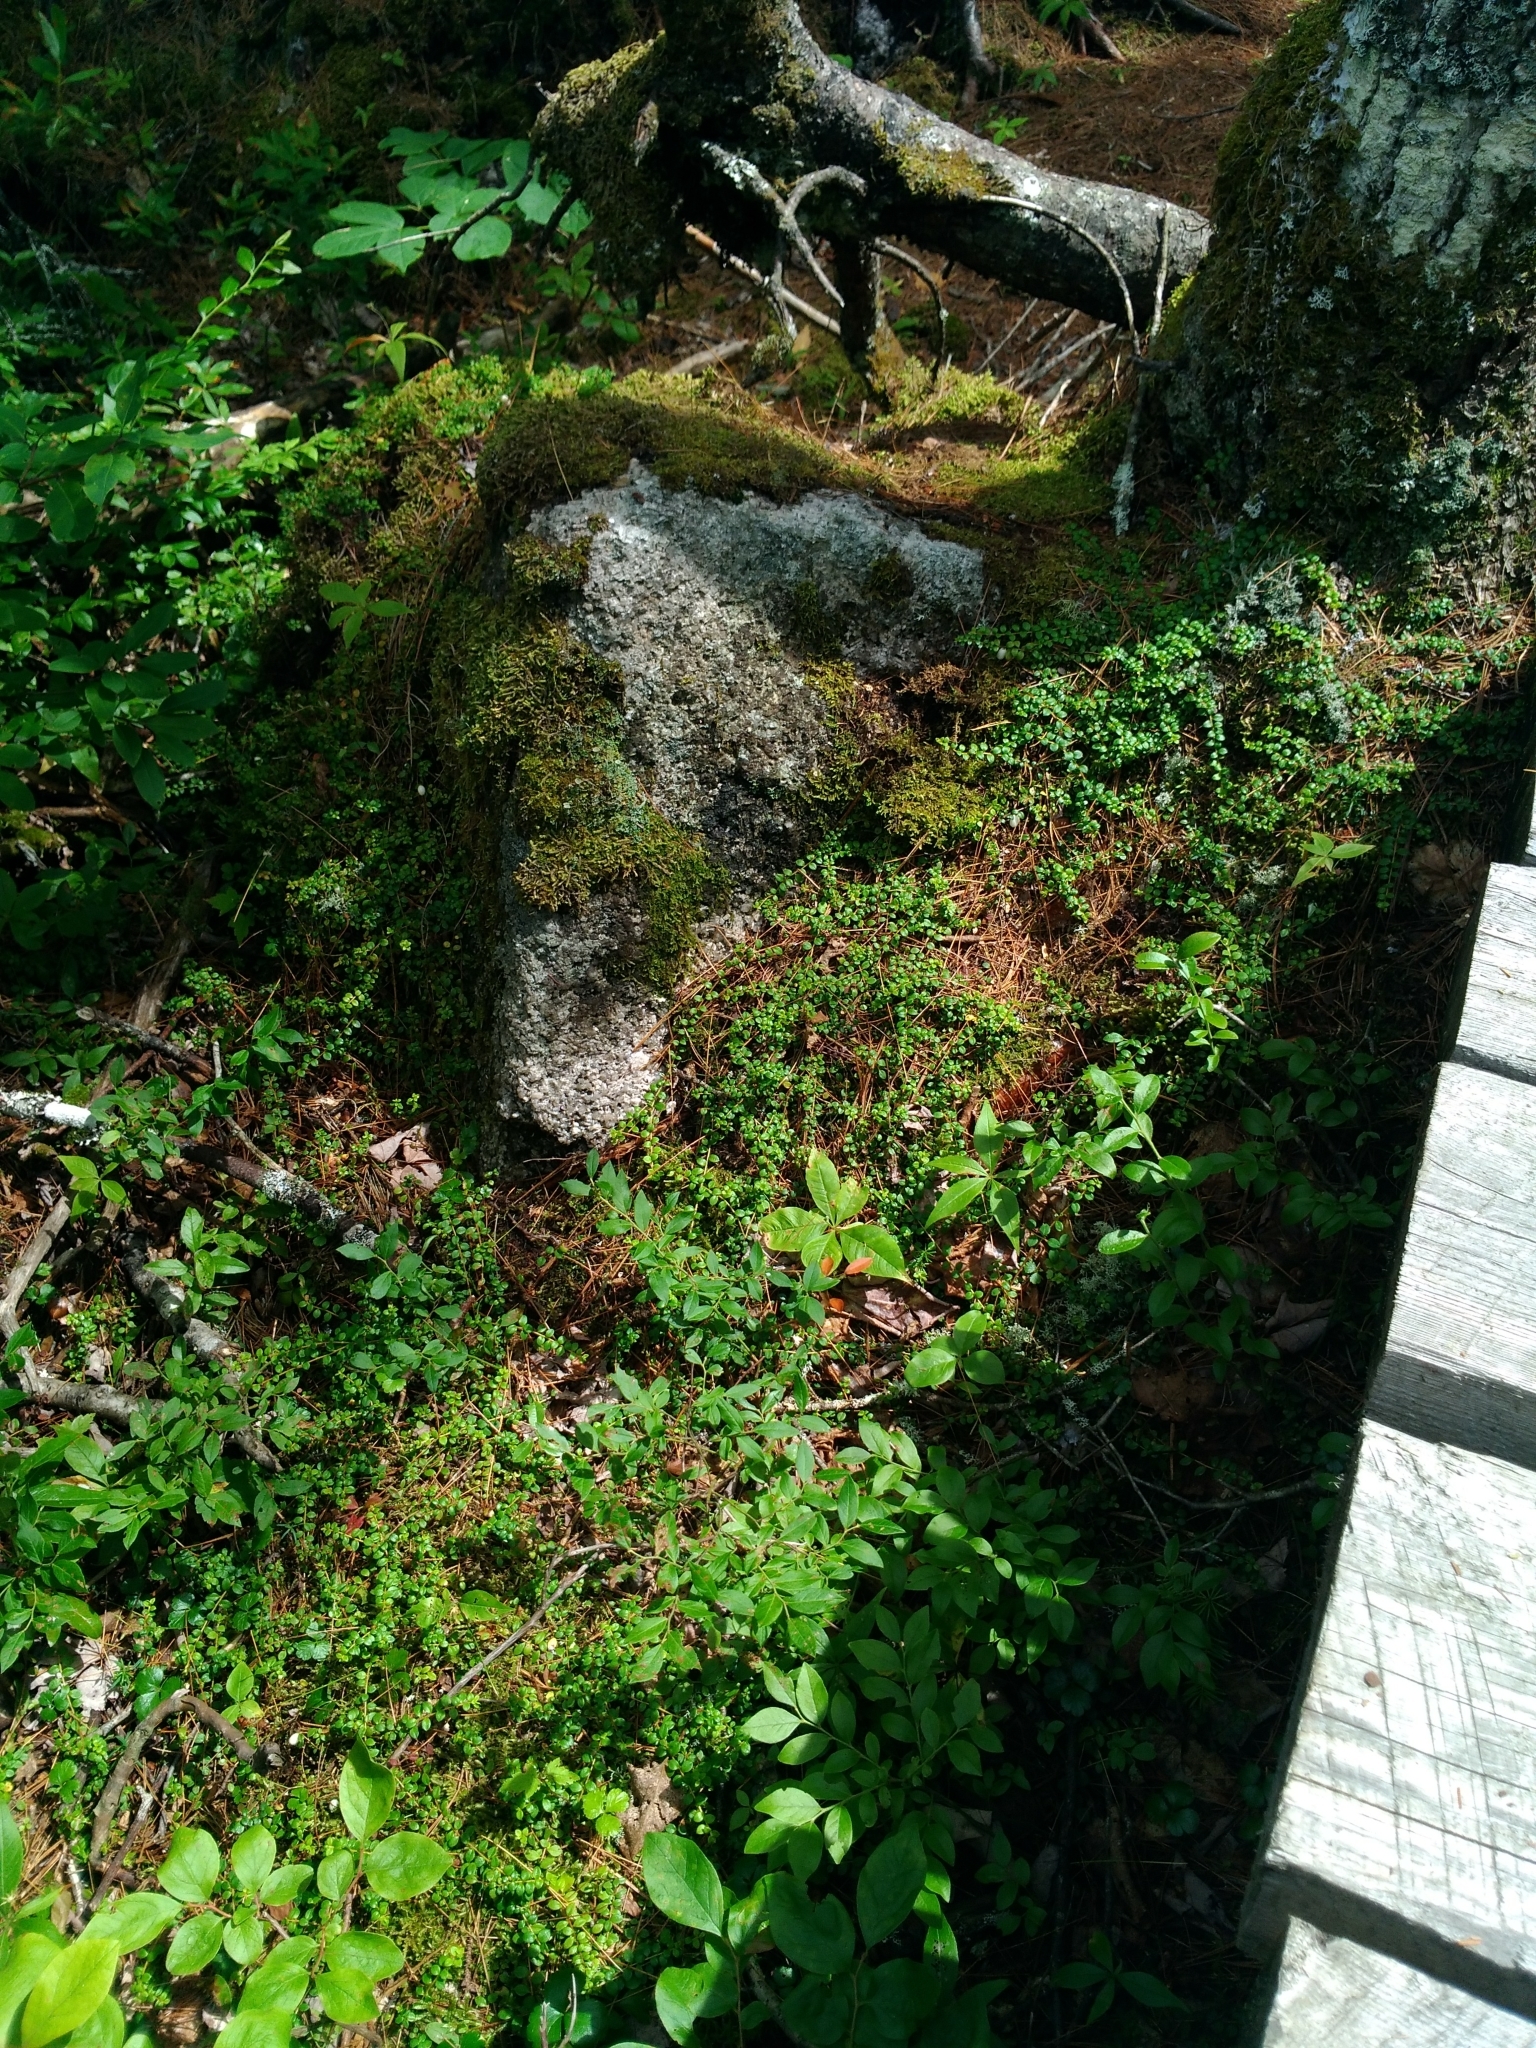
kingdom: Plantae
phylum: Tracheophyta
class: Magnoliopsida
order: Ericales
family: Ericaceae
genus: Gaultheria
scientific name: Gaultheria hispidula
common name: Cancer wintergreen
